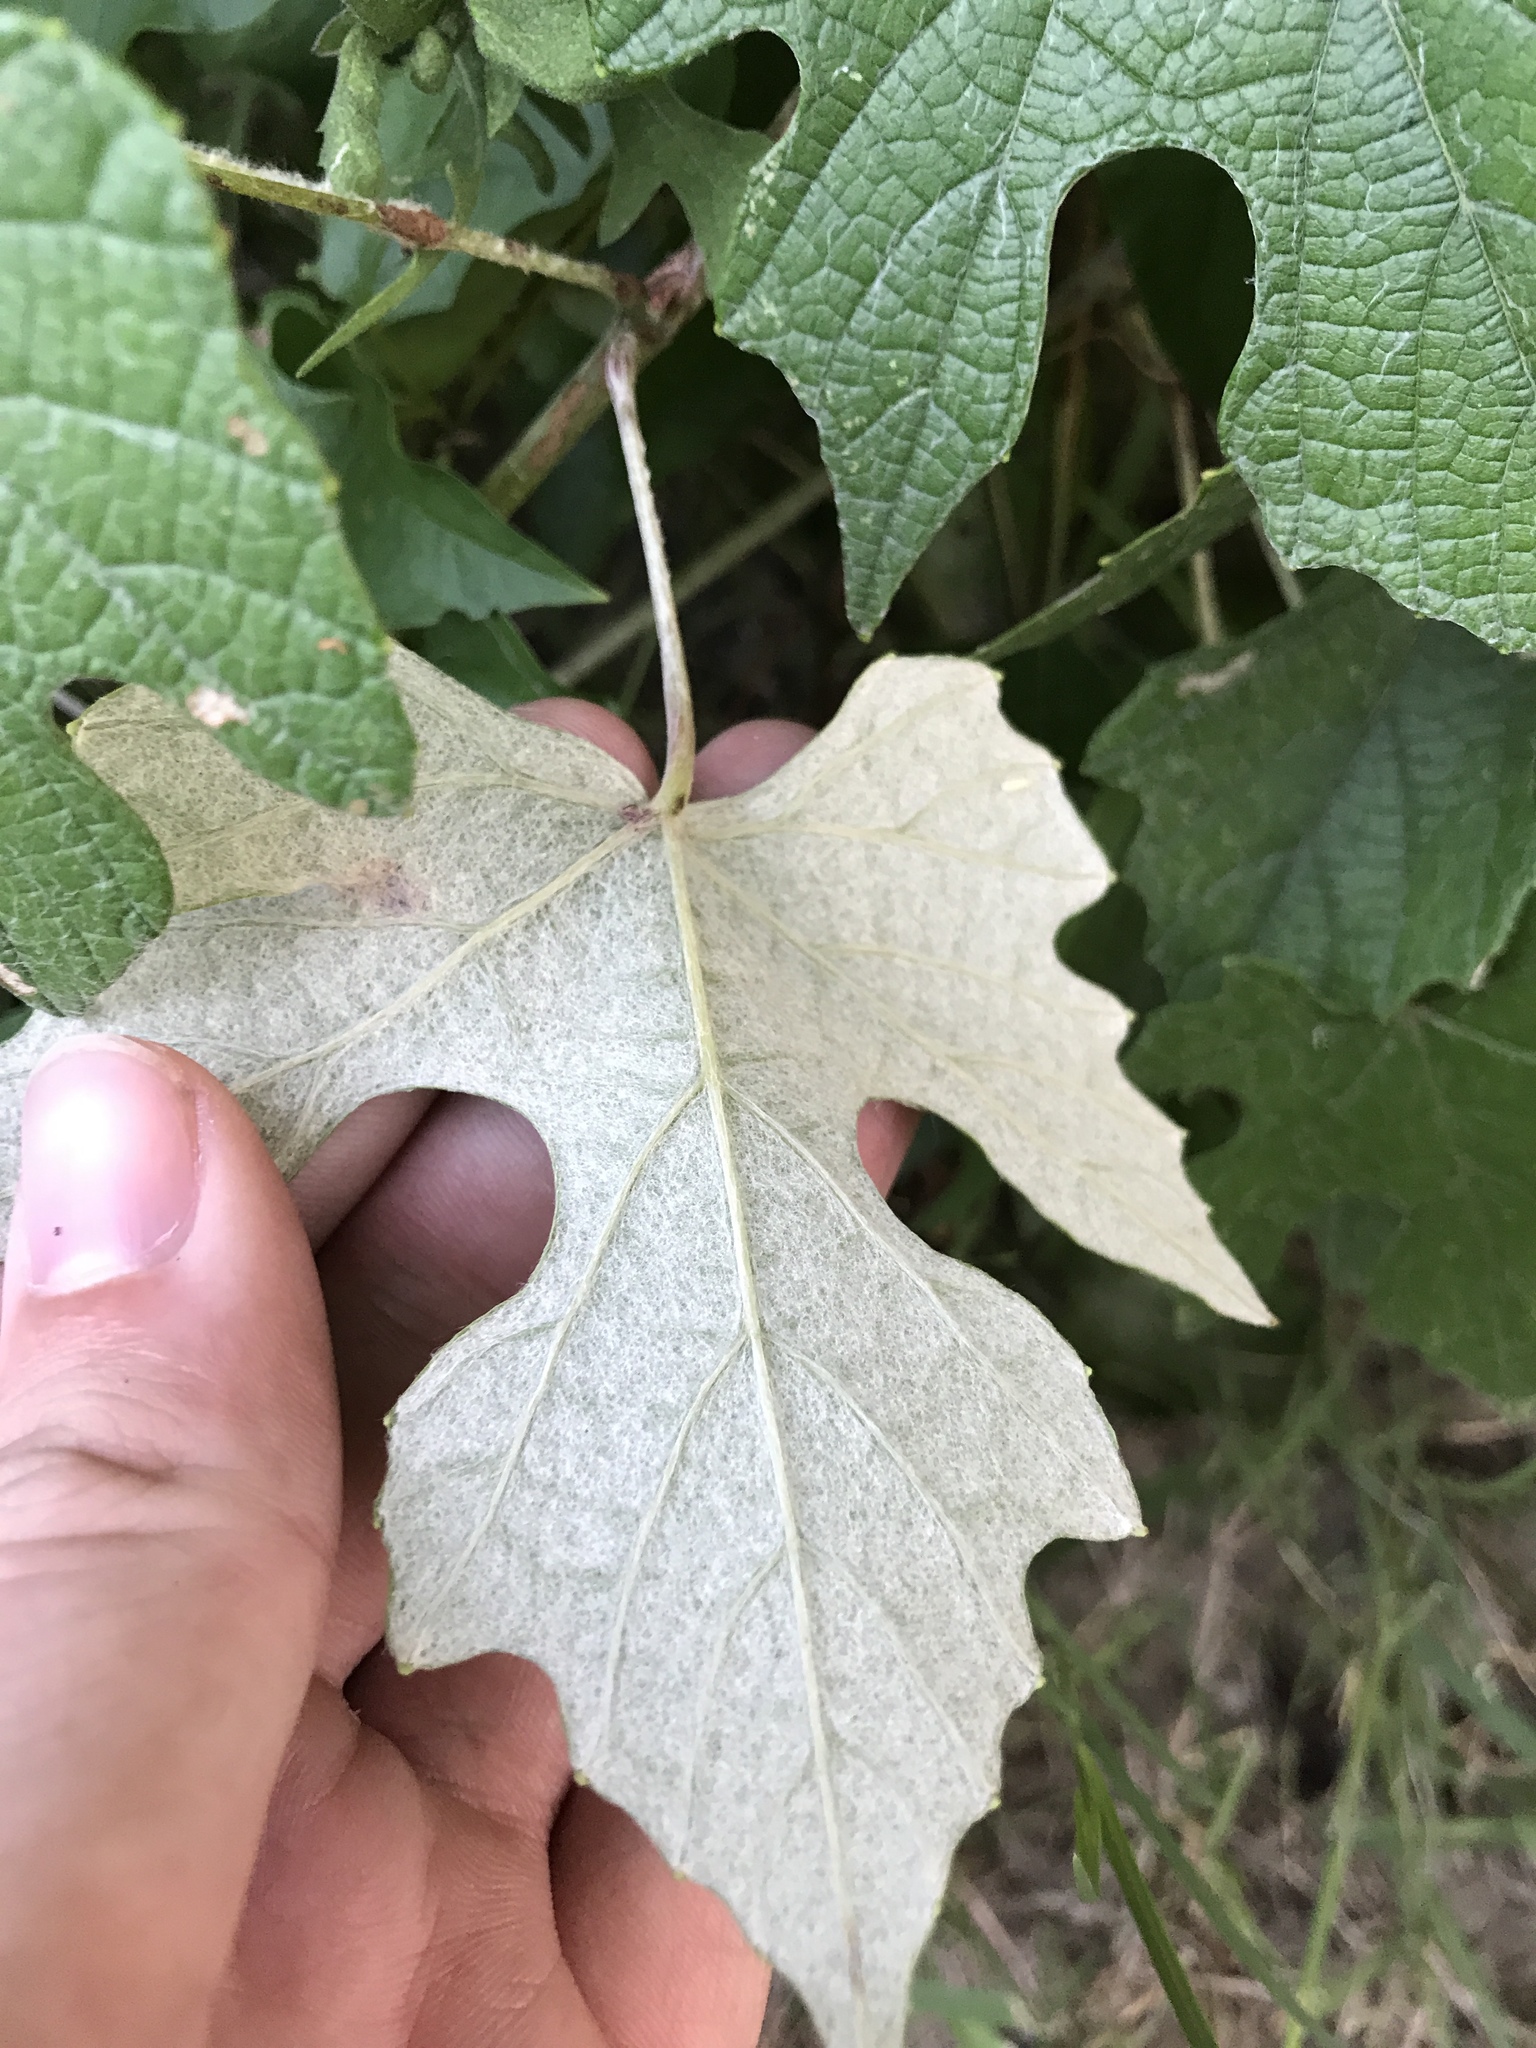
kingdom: Plantae
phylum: Tracheophyta
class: Magnoliopsida
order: Vitales
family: Vitaceae
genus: Vitis
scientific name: Vitis mustangensis
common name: Mustang grape
